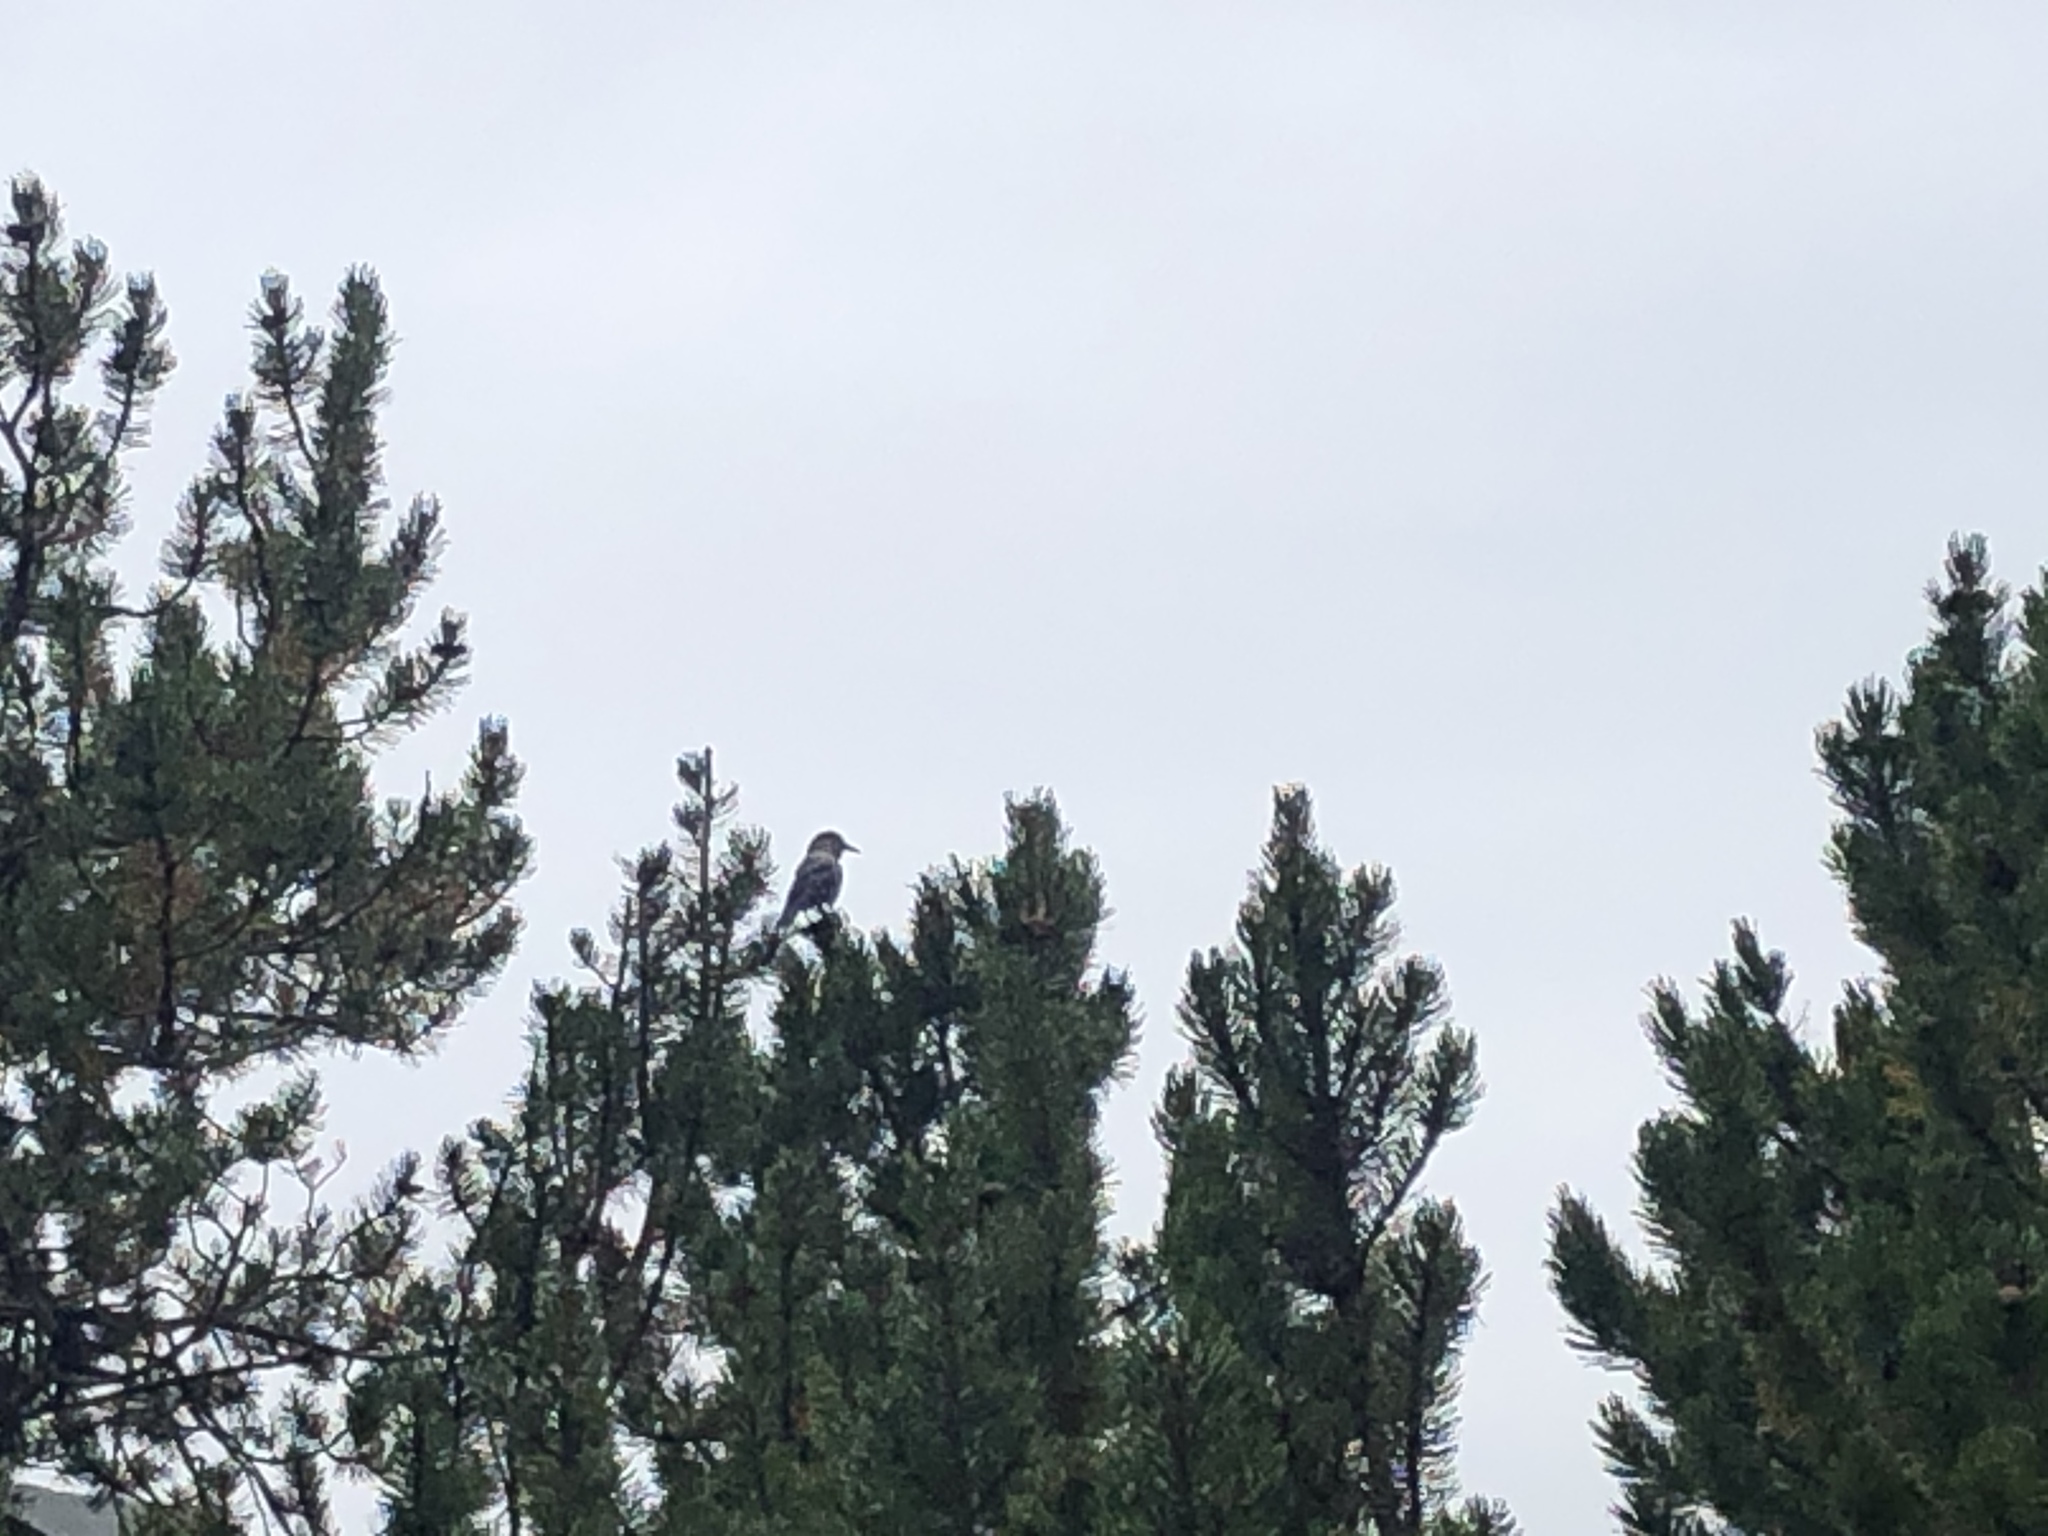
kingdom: Animalia
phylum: Chordata
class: Aves
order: Passeriformes
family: Corvidae
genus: Nucifraga
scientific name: Nucifraga caryocatactes
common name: Spotted nutcracker
